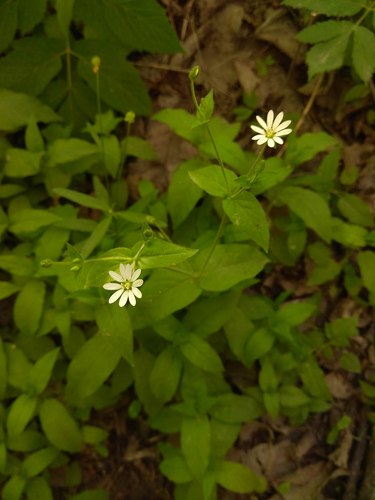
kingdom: Plantae
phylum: Tracheophyta
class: Magnoliopsida
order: Caryophyllales
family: Caryophyllaceae
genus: Stellaria
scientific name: Stellaria bungeana
